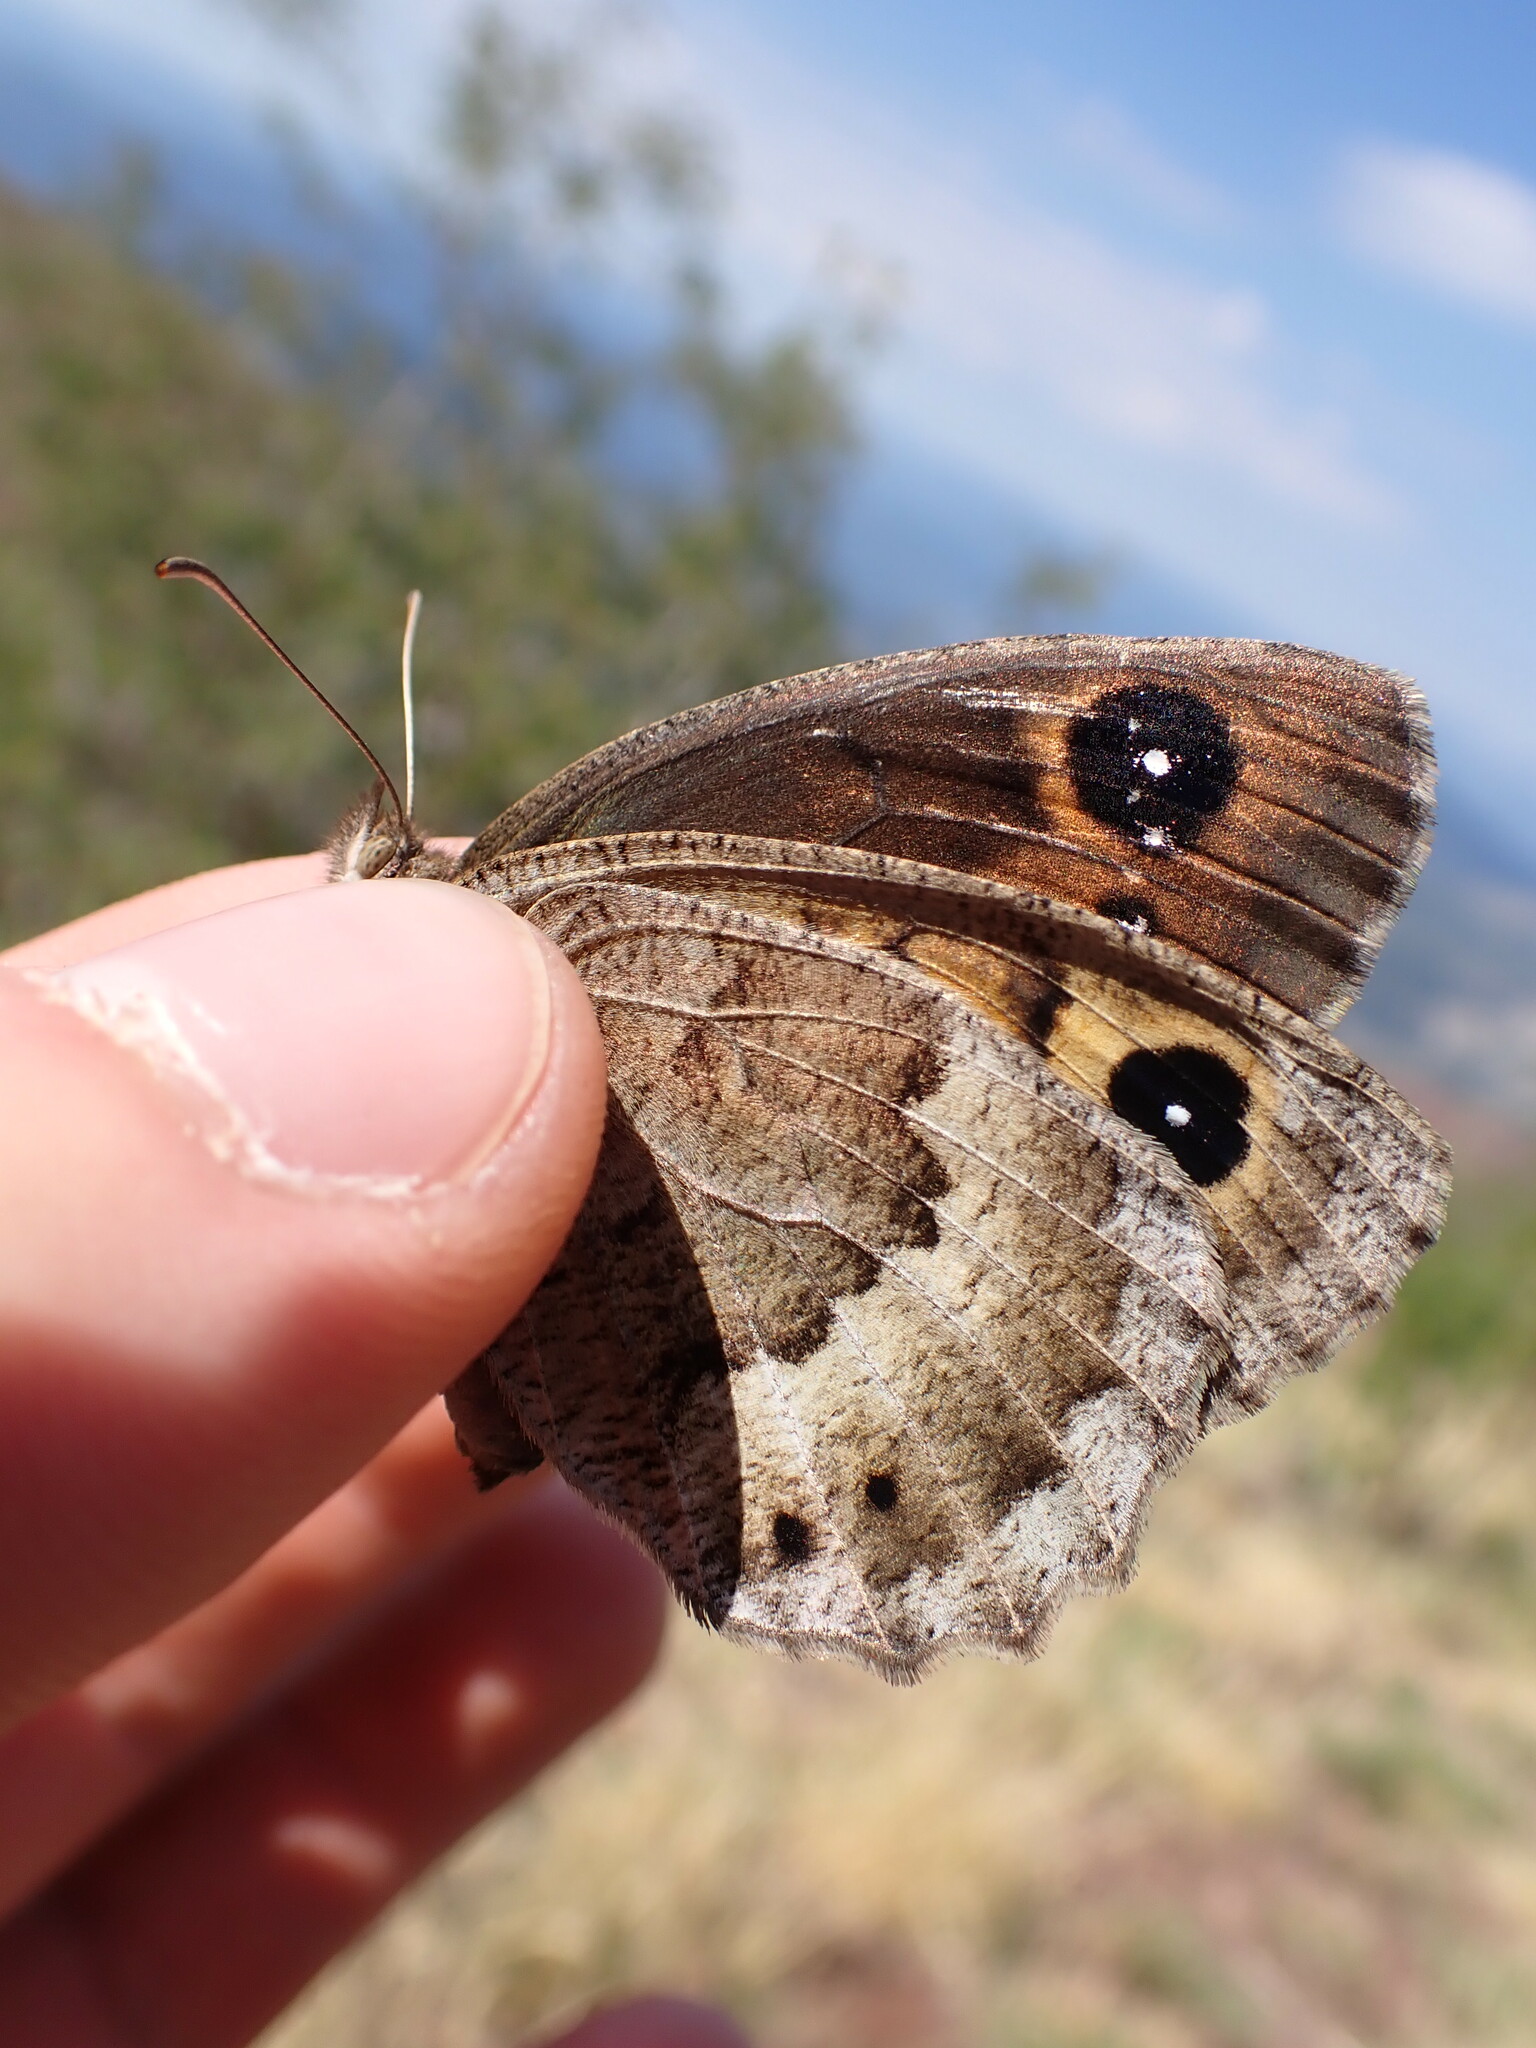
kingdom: Animalia
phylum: Arthropoda
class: Insecta
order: Lepidoptera
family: Nymphalidae
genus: Satyrus
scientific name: Satyrus ferula
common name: Great sooty satyr
